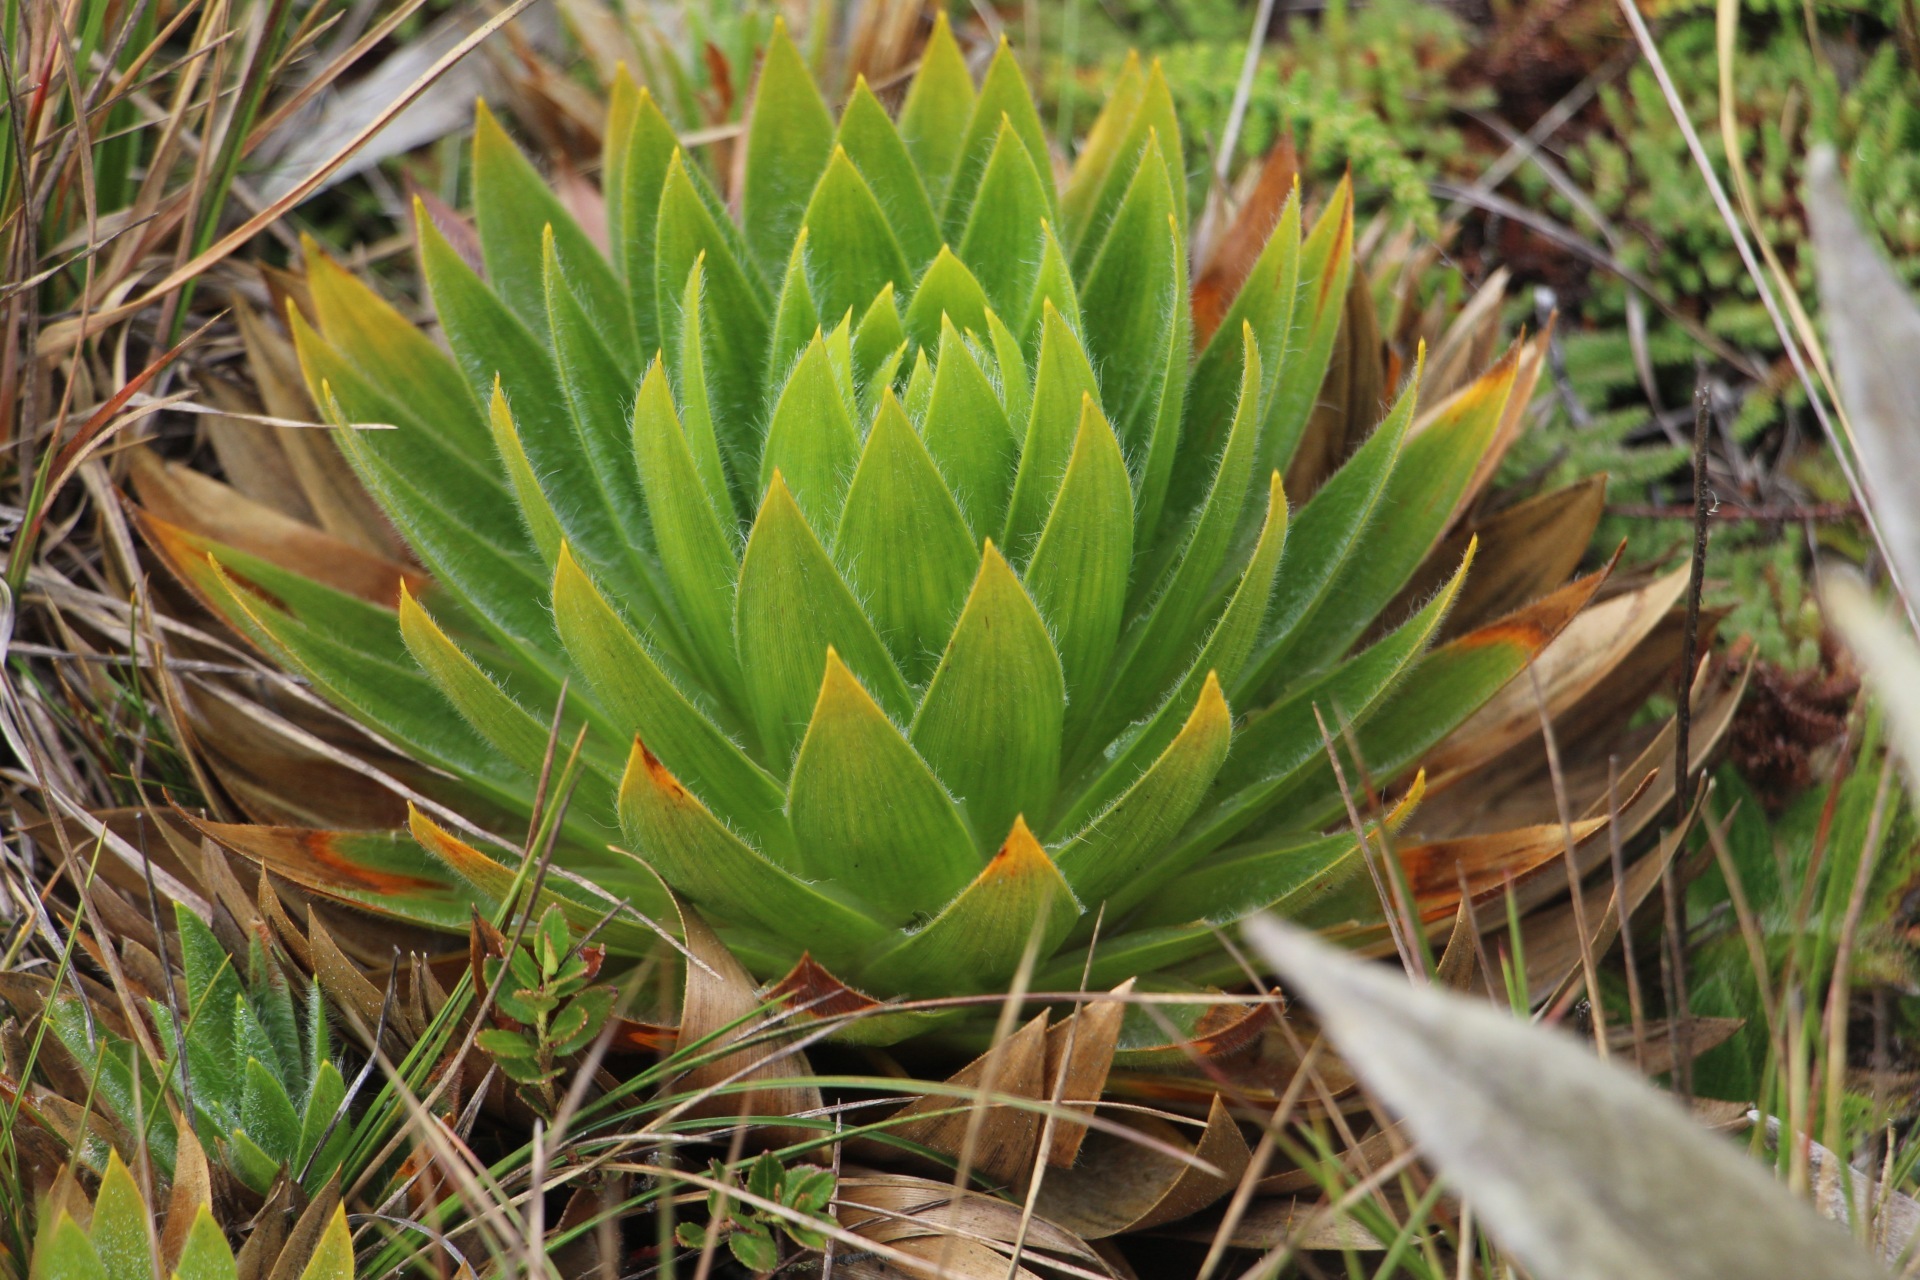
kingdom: Plantae
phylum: Tracheophyta
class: Liliopsida
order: Poales
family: Eriocaulaceae
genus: Paepalanthus
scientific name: Paepalanthus alpinus
